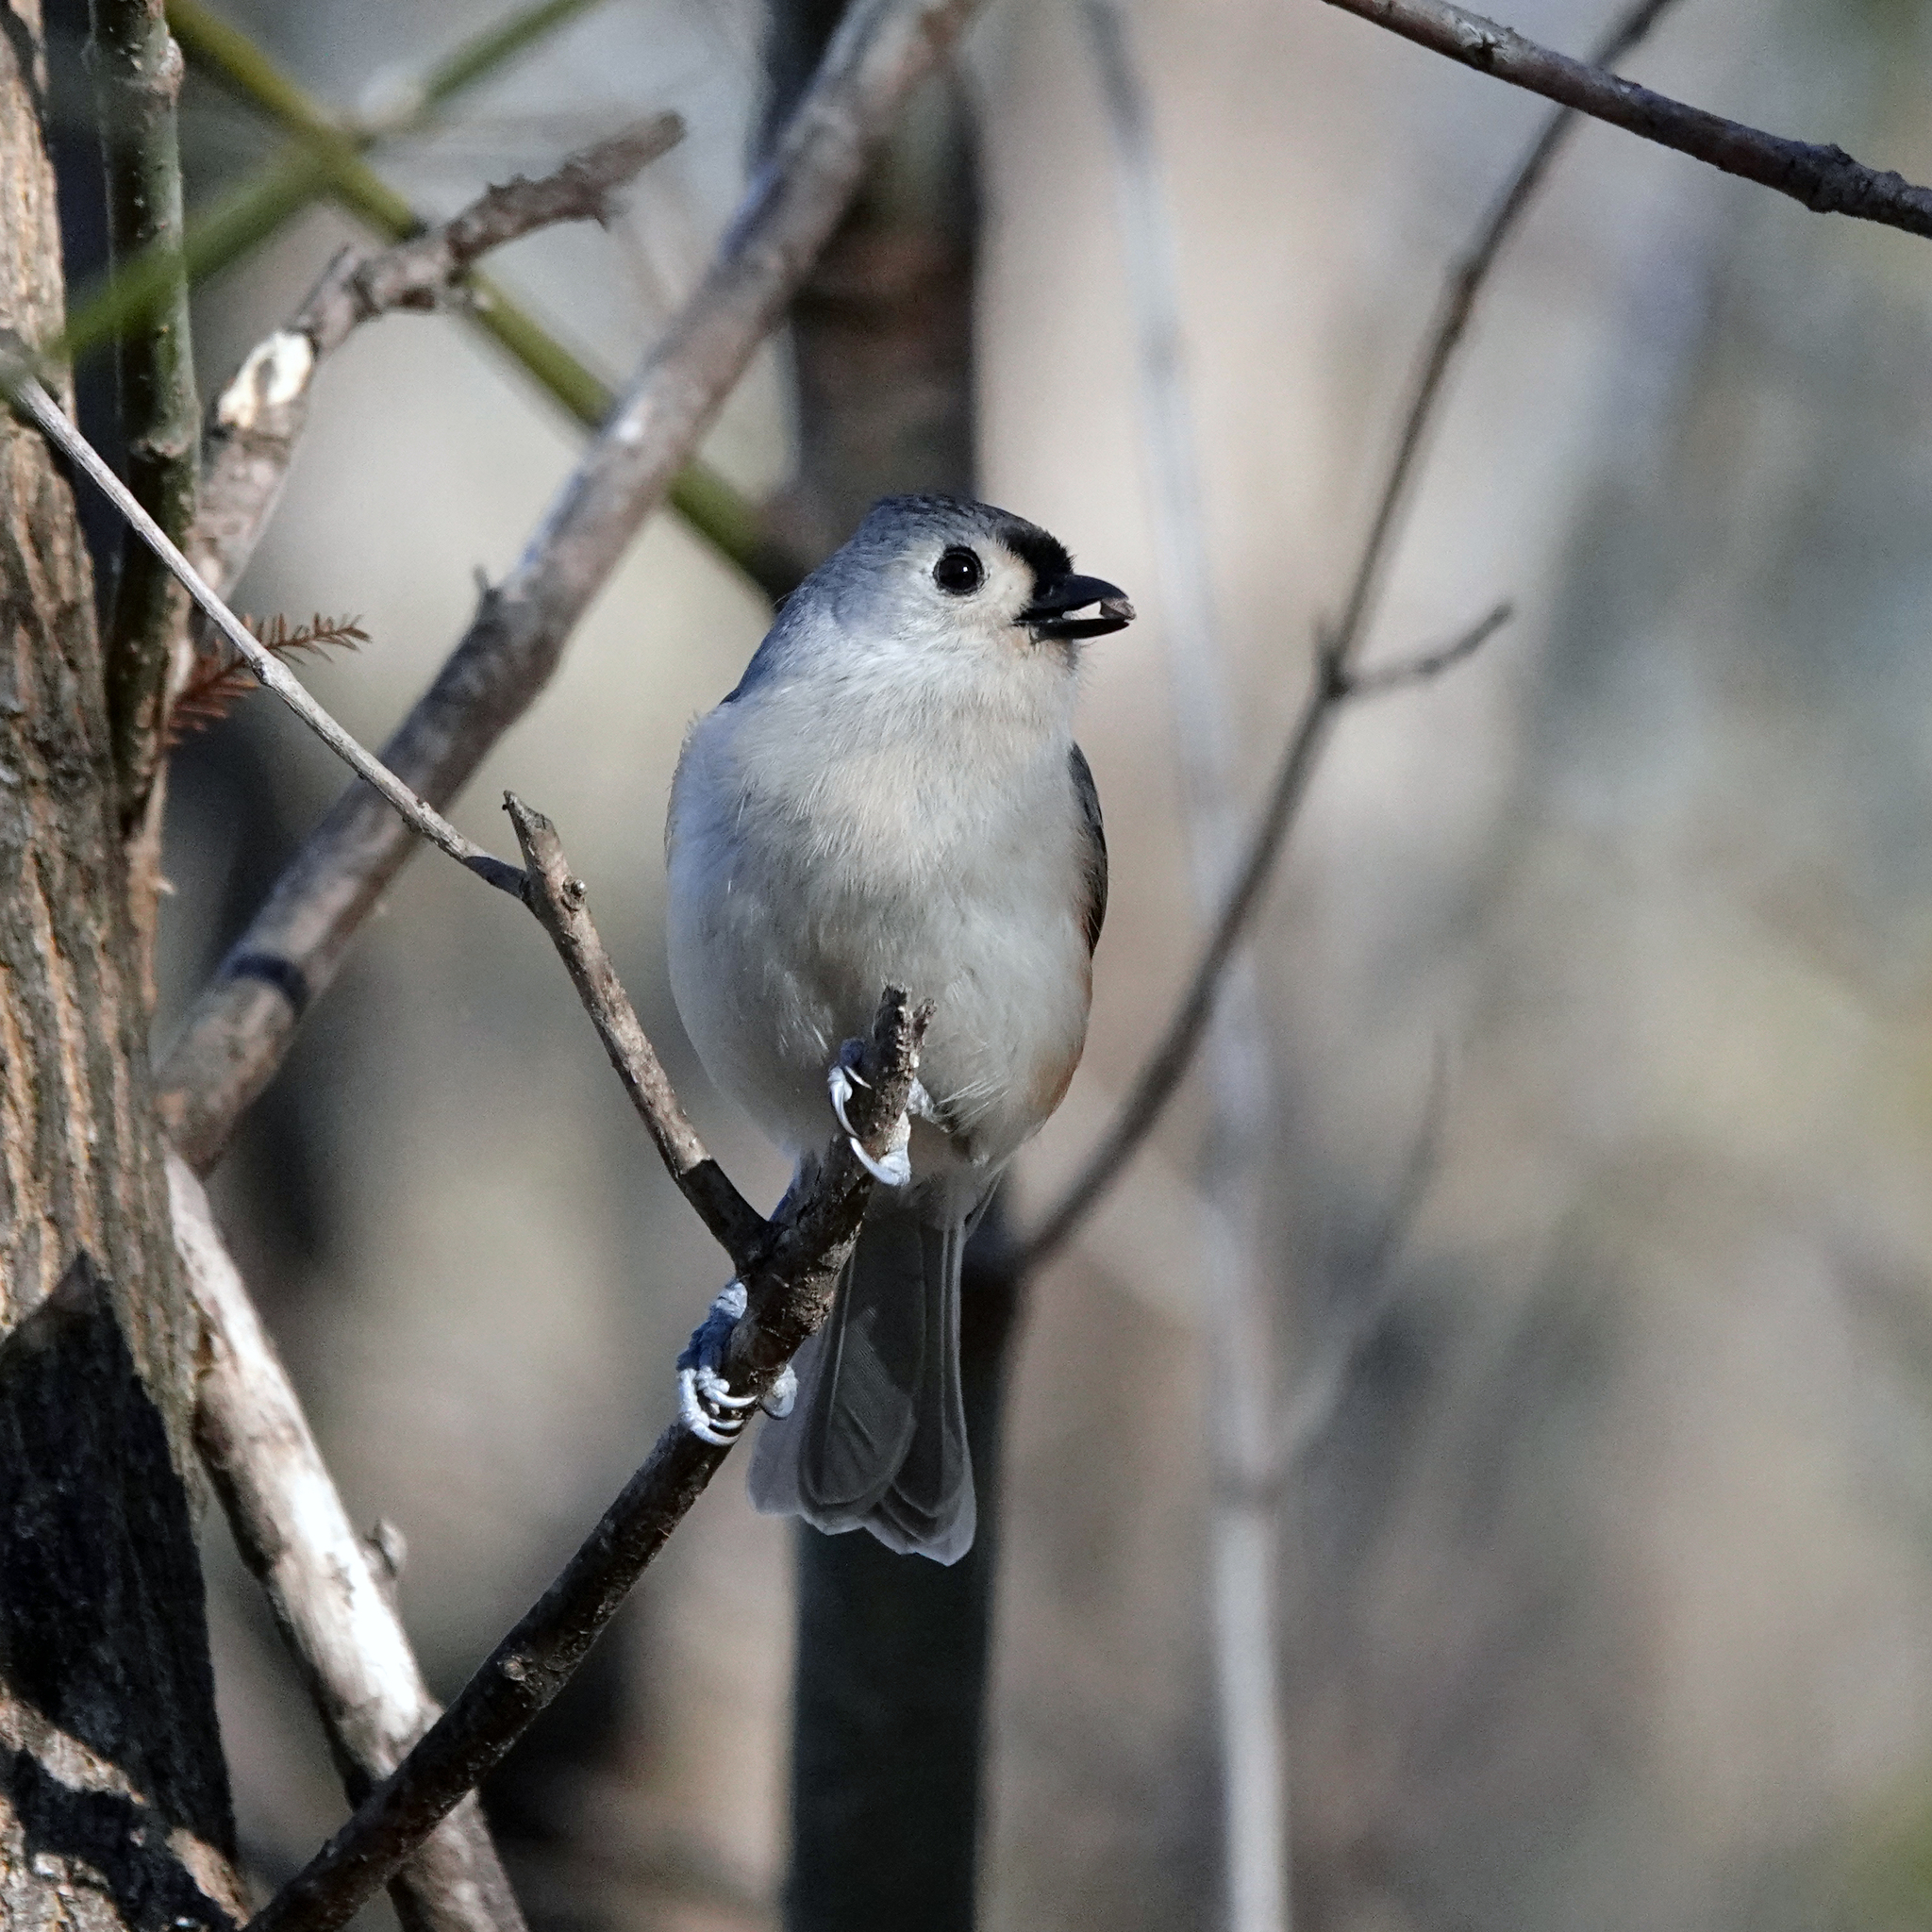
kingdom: Animalia
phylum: Chordata
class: Aves
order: Passeriformes
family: Paridae
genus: Baeolophus
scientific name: Baeolophus bicolor
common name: Tufted titmouse
